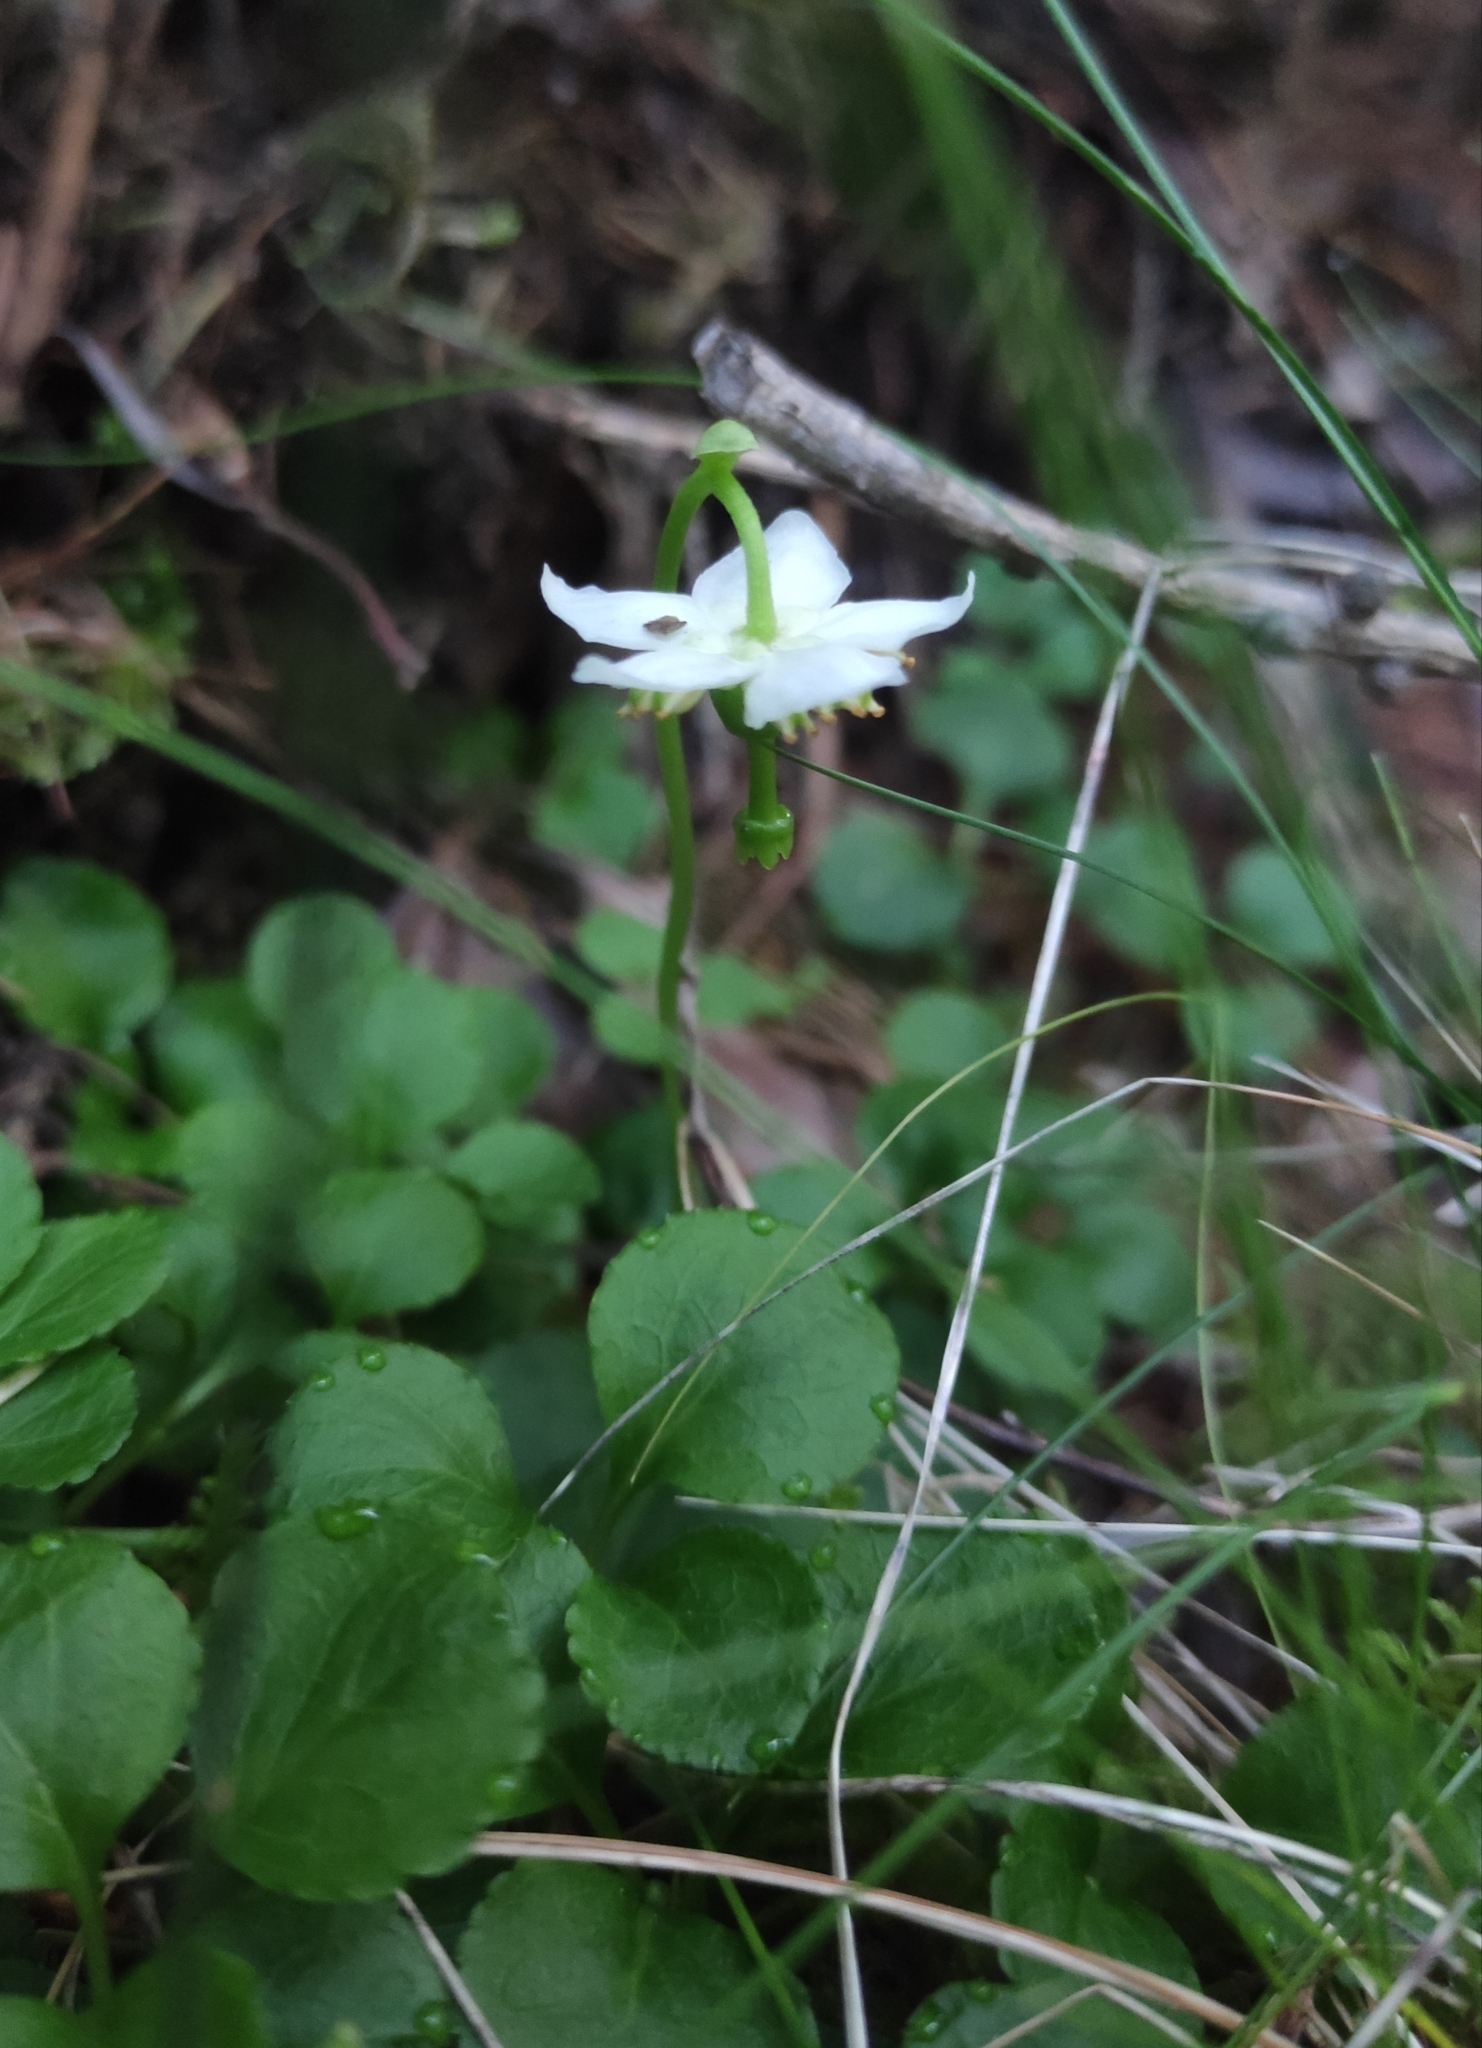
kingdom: Plantae
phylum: Tracheophyta
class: Magnoliopsida
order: Ericales
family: Ericaceae
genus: Moneses
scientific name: Moneses uniflora
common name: One-flowered wintergreen
